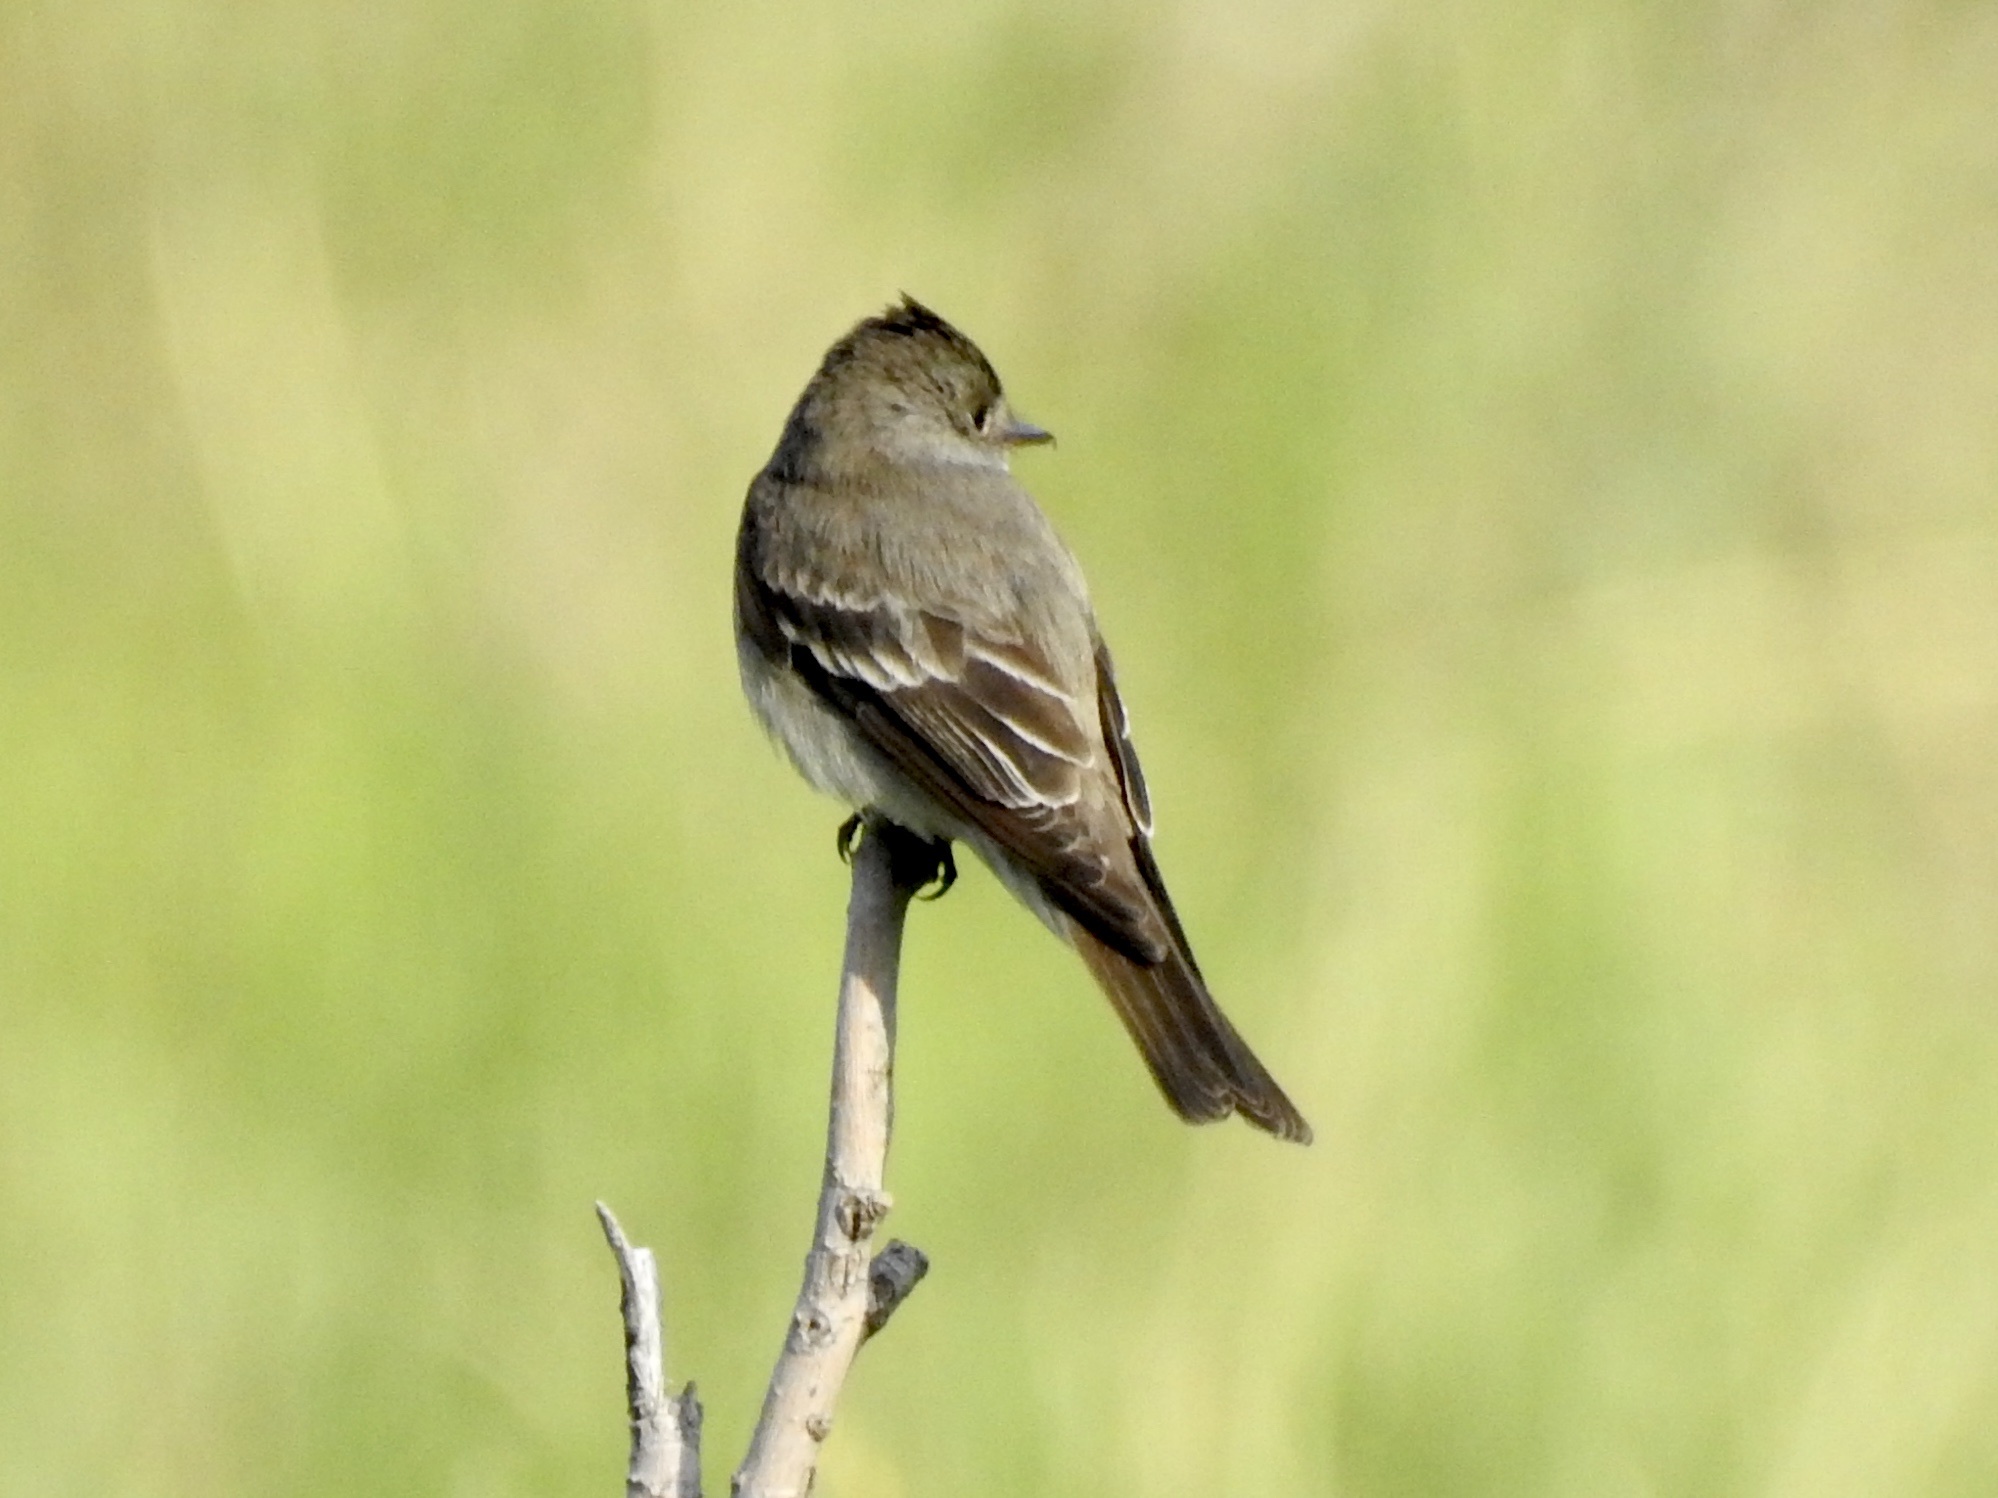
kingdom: Animalia
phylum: Chordata
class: Aves
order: Passeriformes
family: Tyrannidae
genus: Contopus
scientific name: Contopus sordidulus
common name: Western wood-pewee
